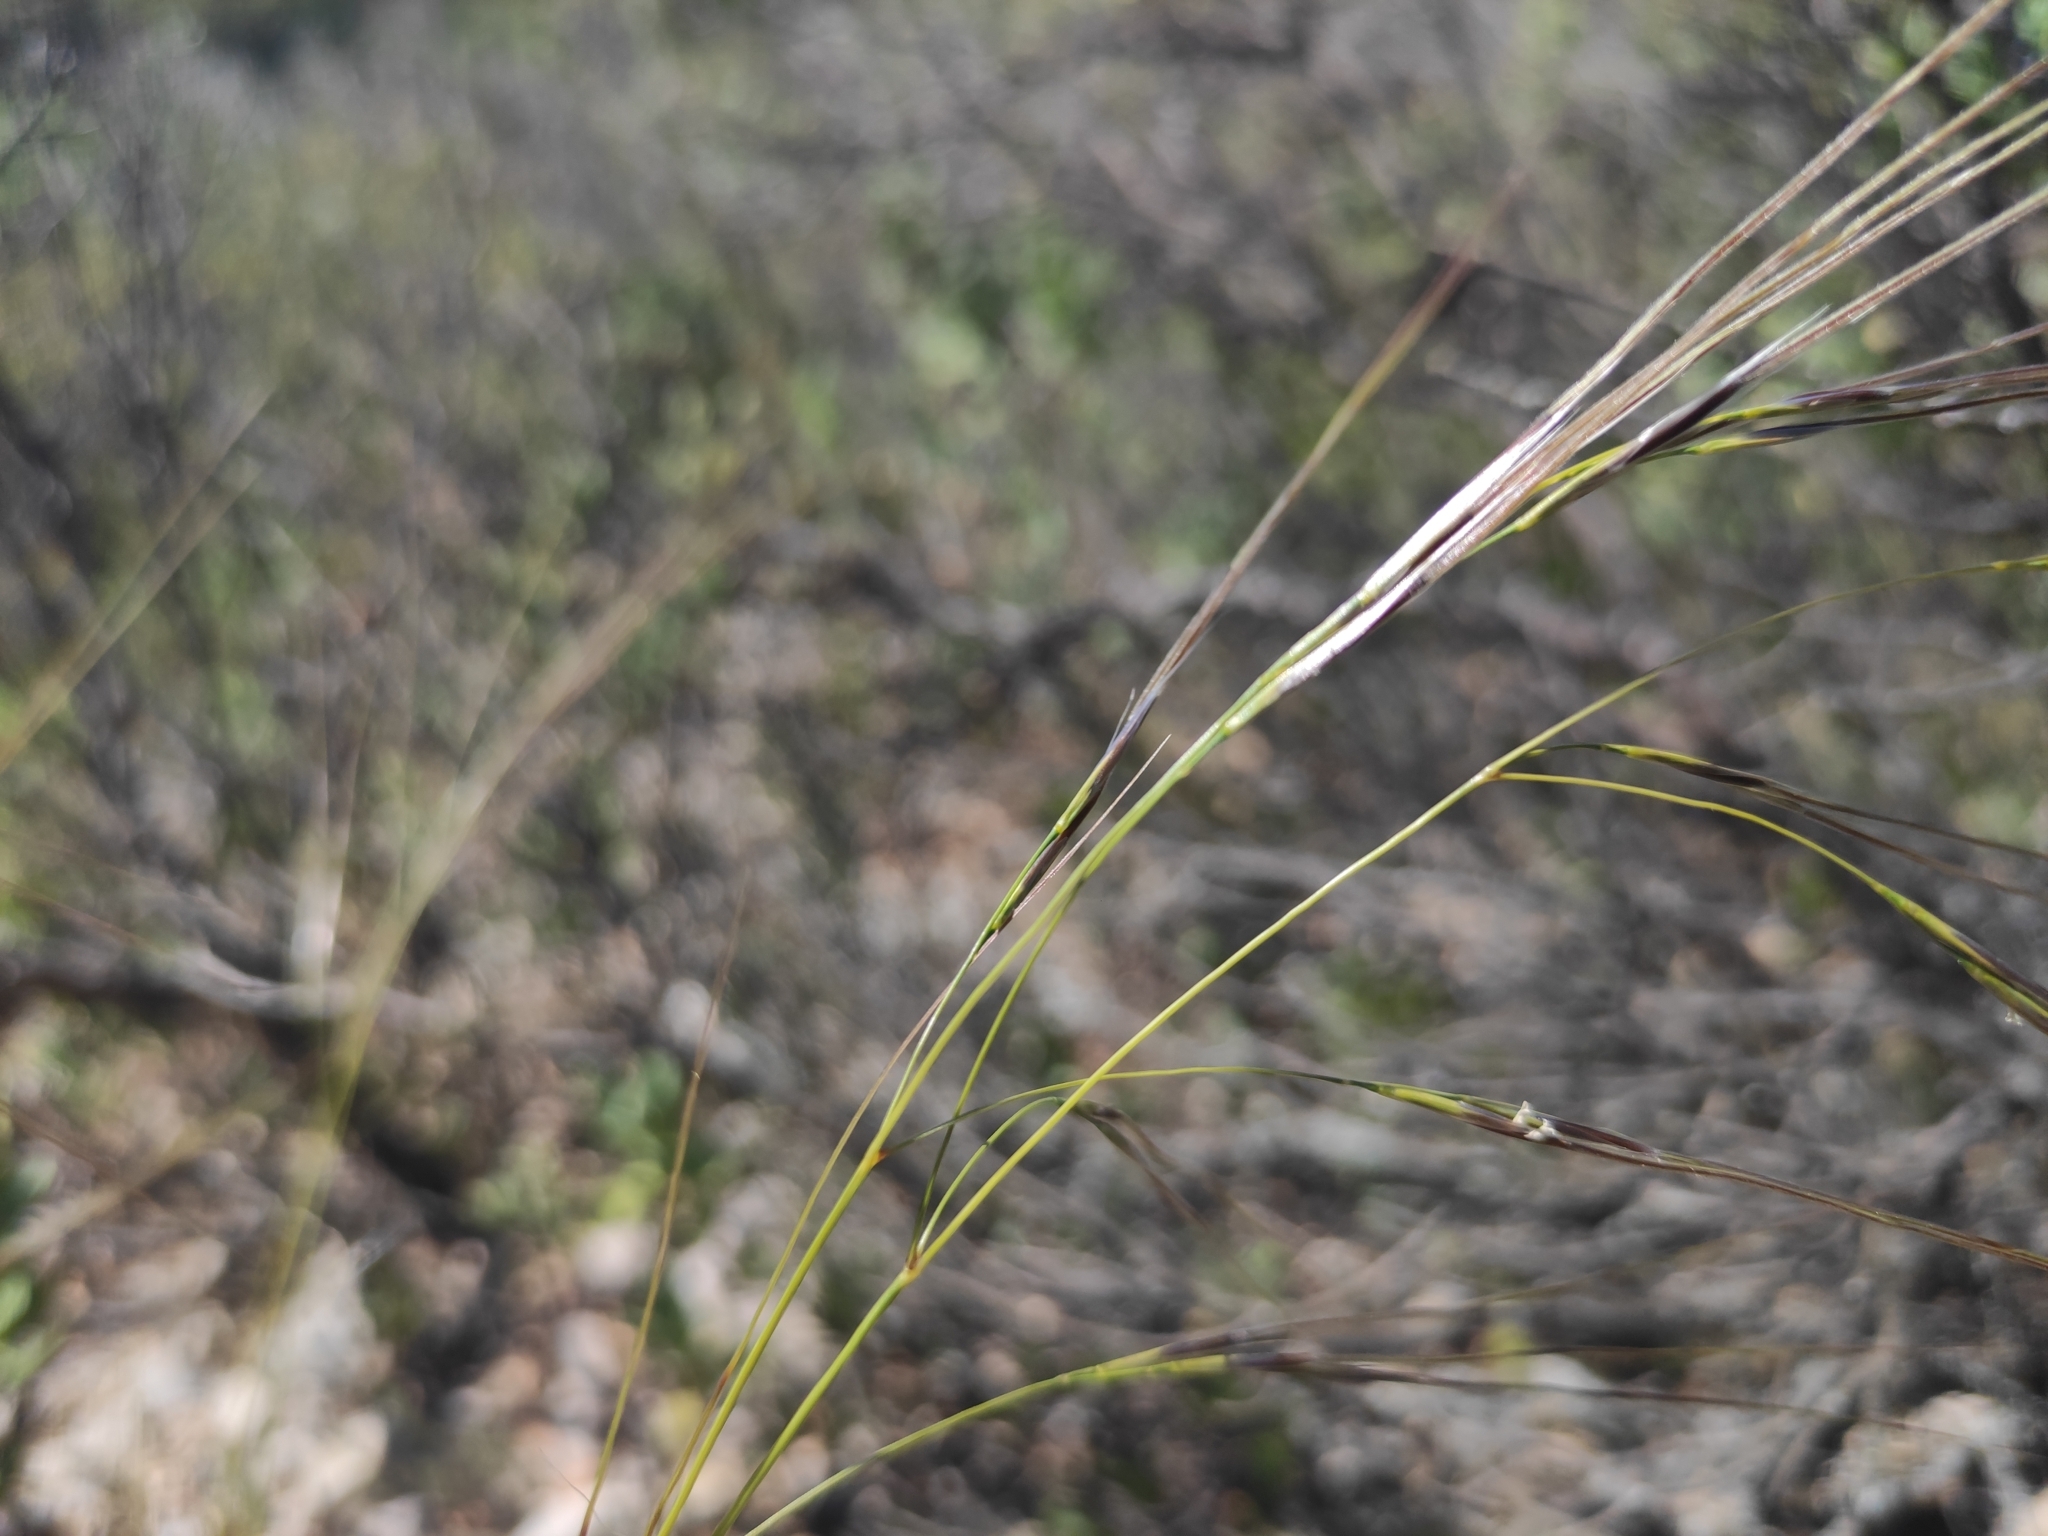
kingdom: Plantae
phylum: Tracheophyta
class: Liliopsida
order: Poales
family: Poaceae
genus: Stipa
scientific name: Stipa offneri
